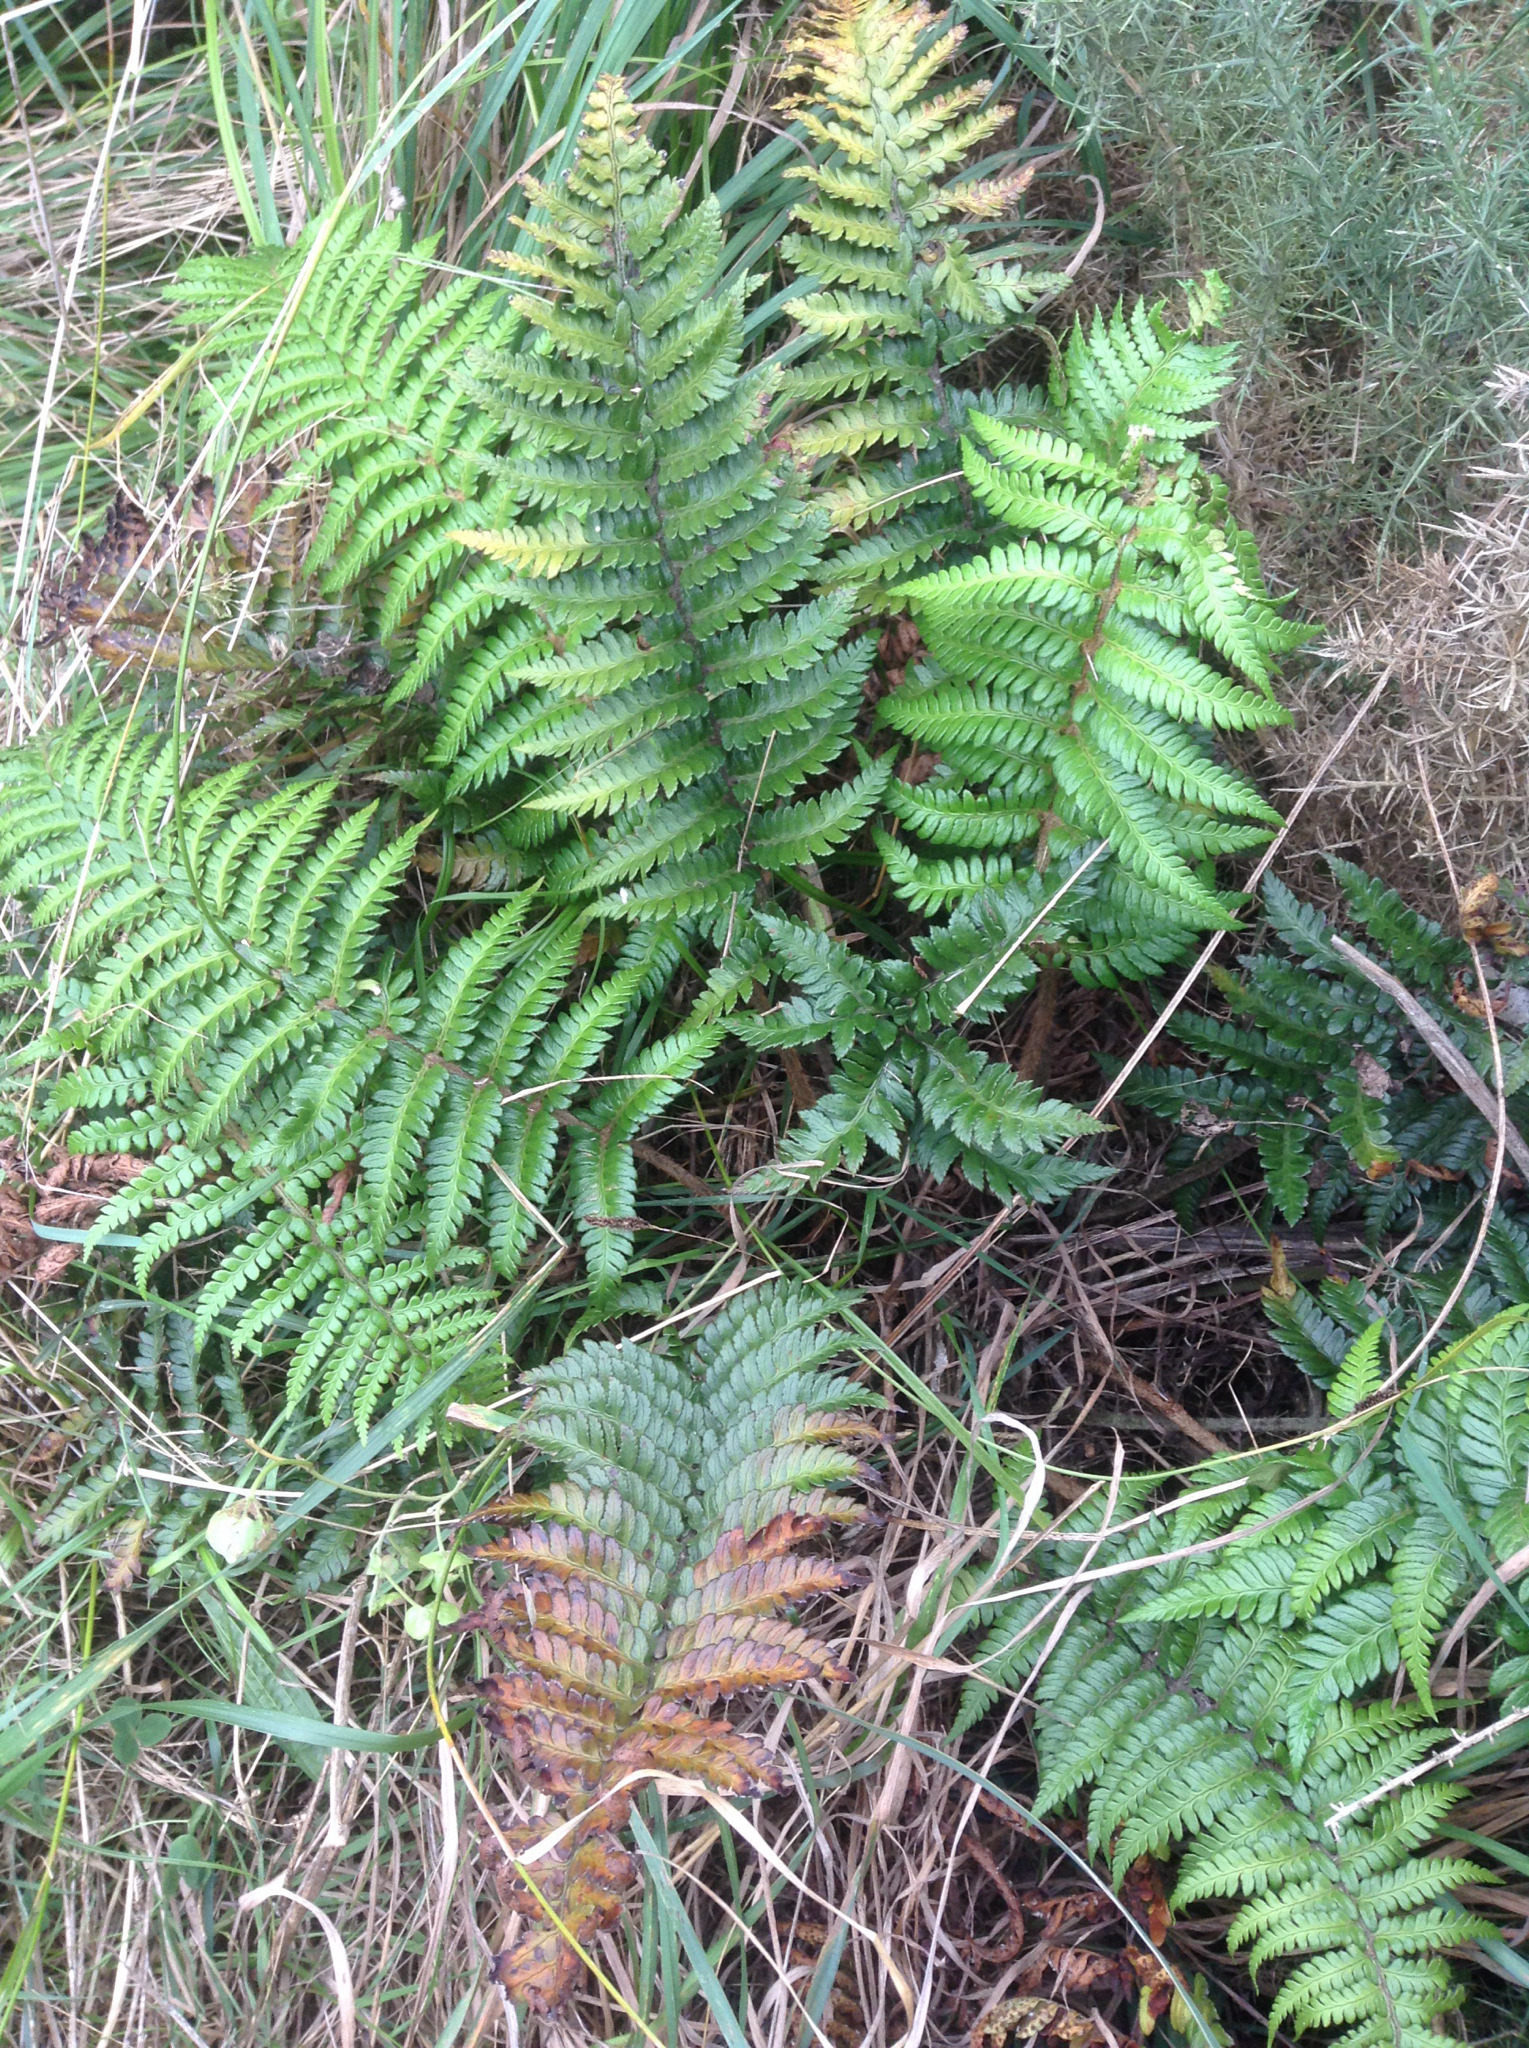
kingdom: Plantae
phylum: Tracheophyta
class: Polypodiopsida
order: Polypodiales
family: Dryopteridaceae
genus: Polystichum
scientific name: Polystichum wawranum
